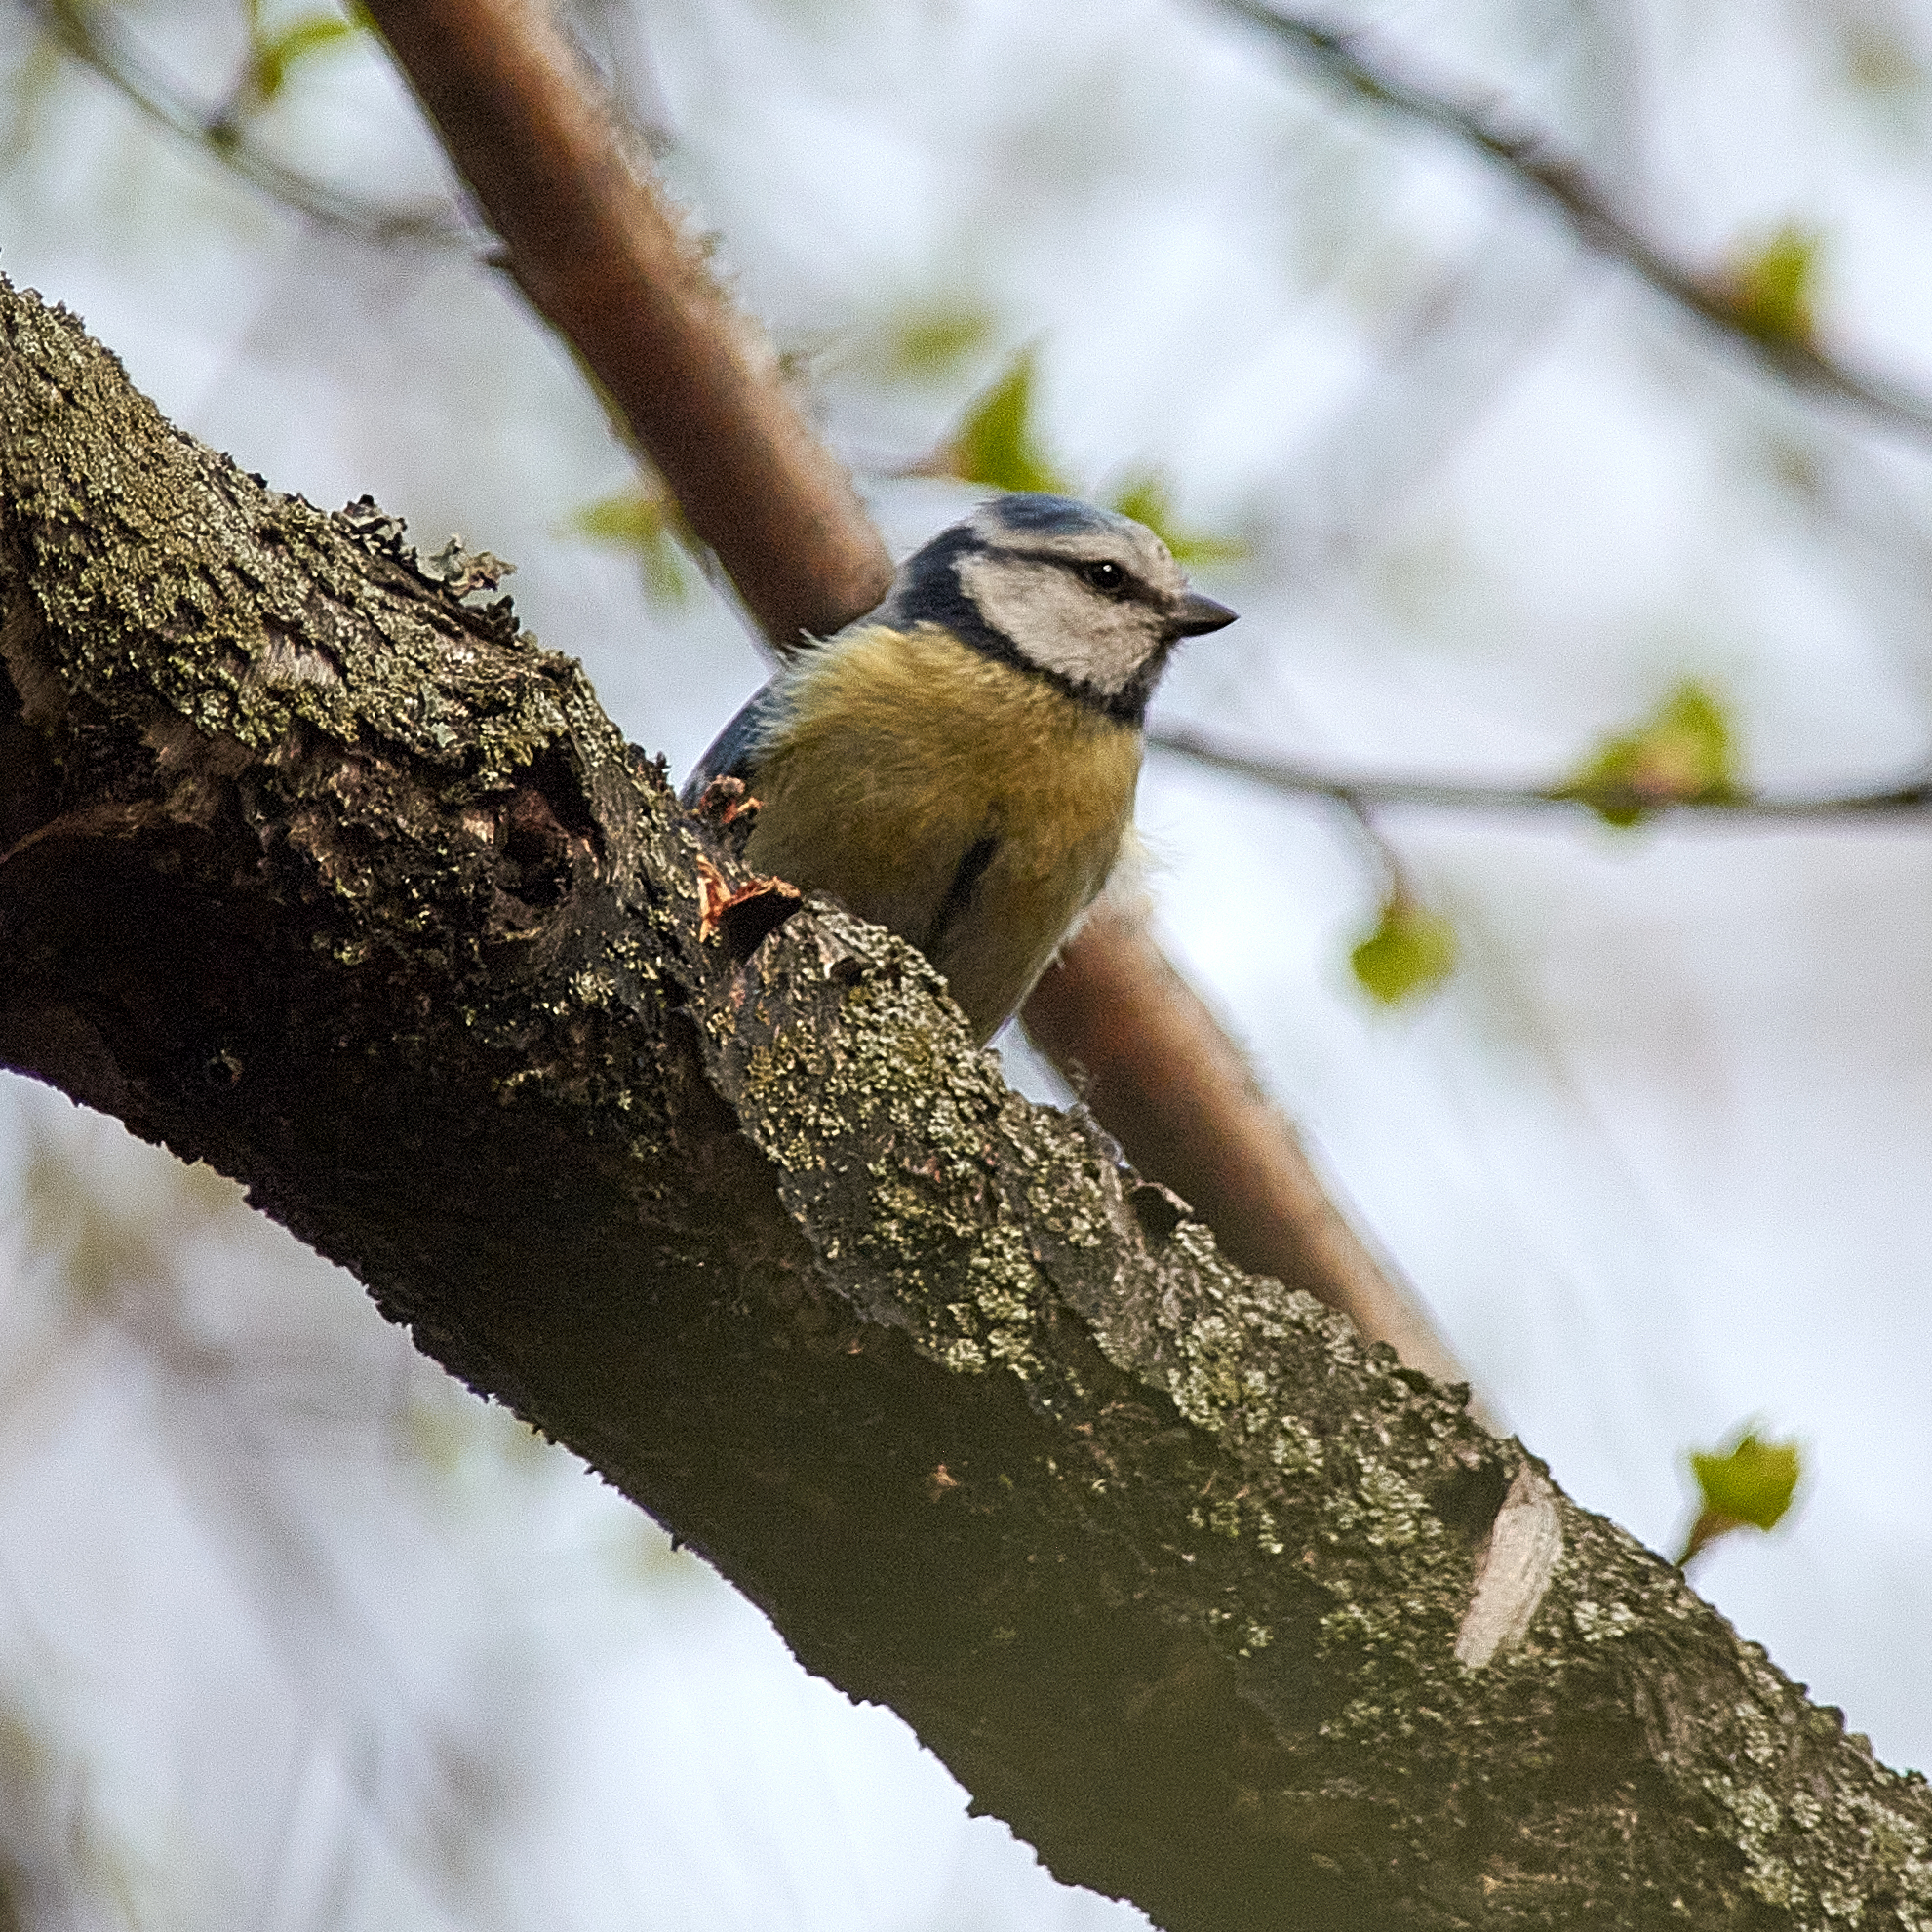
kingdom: Animalia
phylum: Chordata
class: Aves
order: Passeriformes
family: Paridae
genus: Cyanistes
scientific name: Cyanistes caeruleus
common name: Eurasian blue tit
